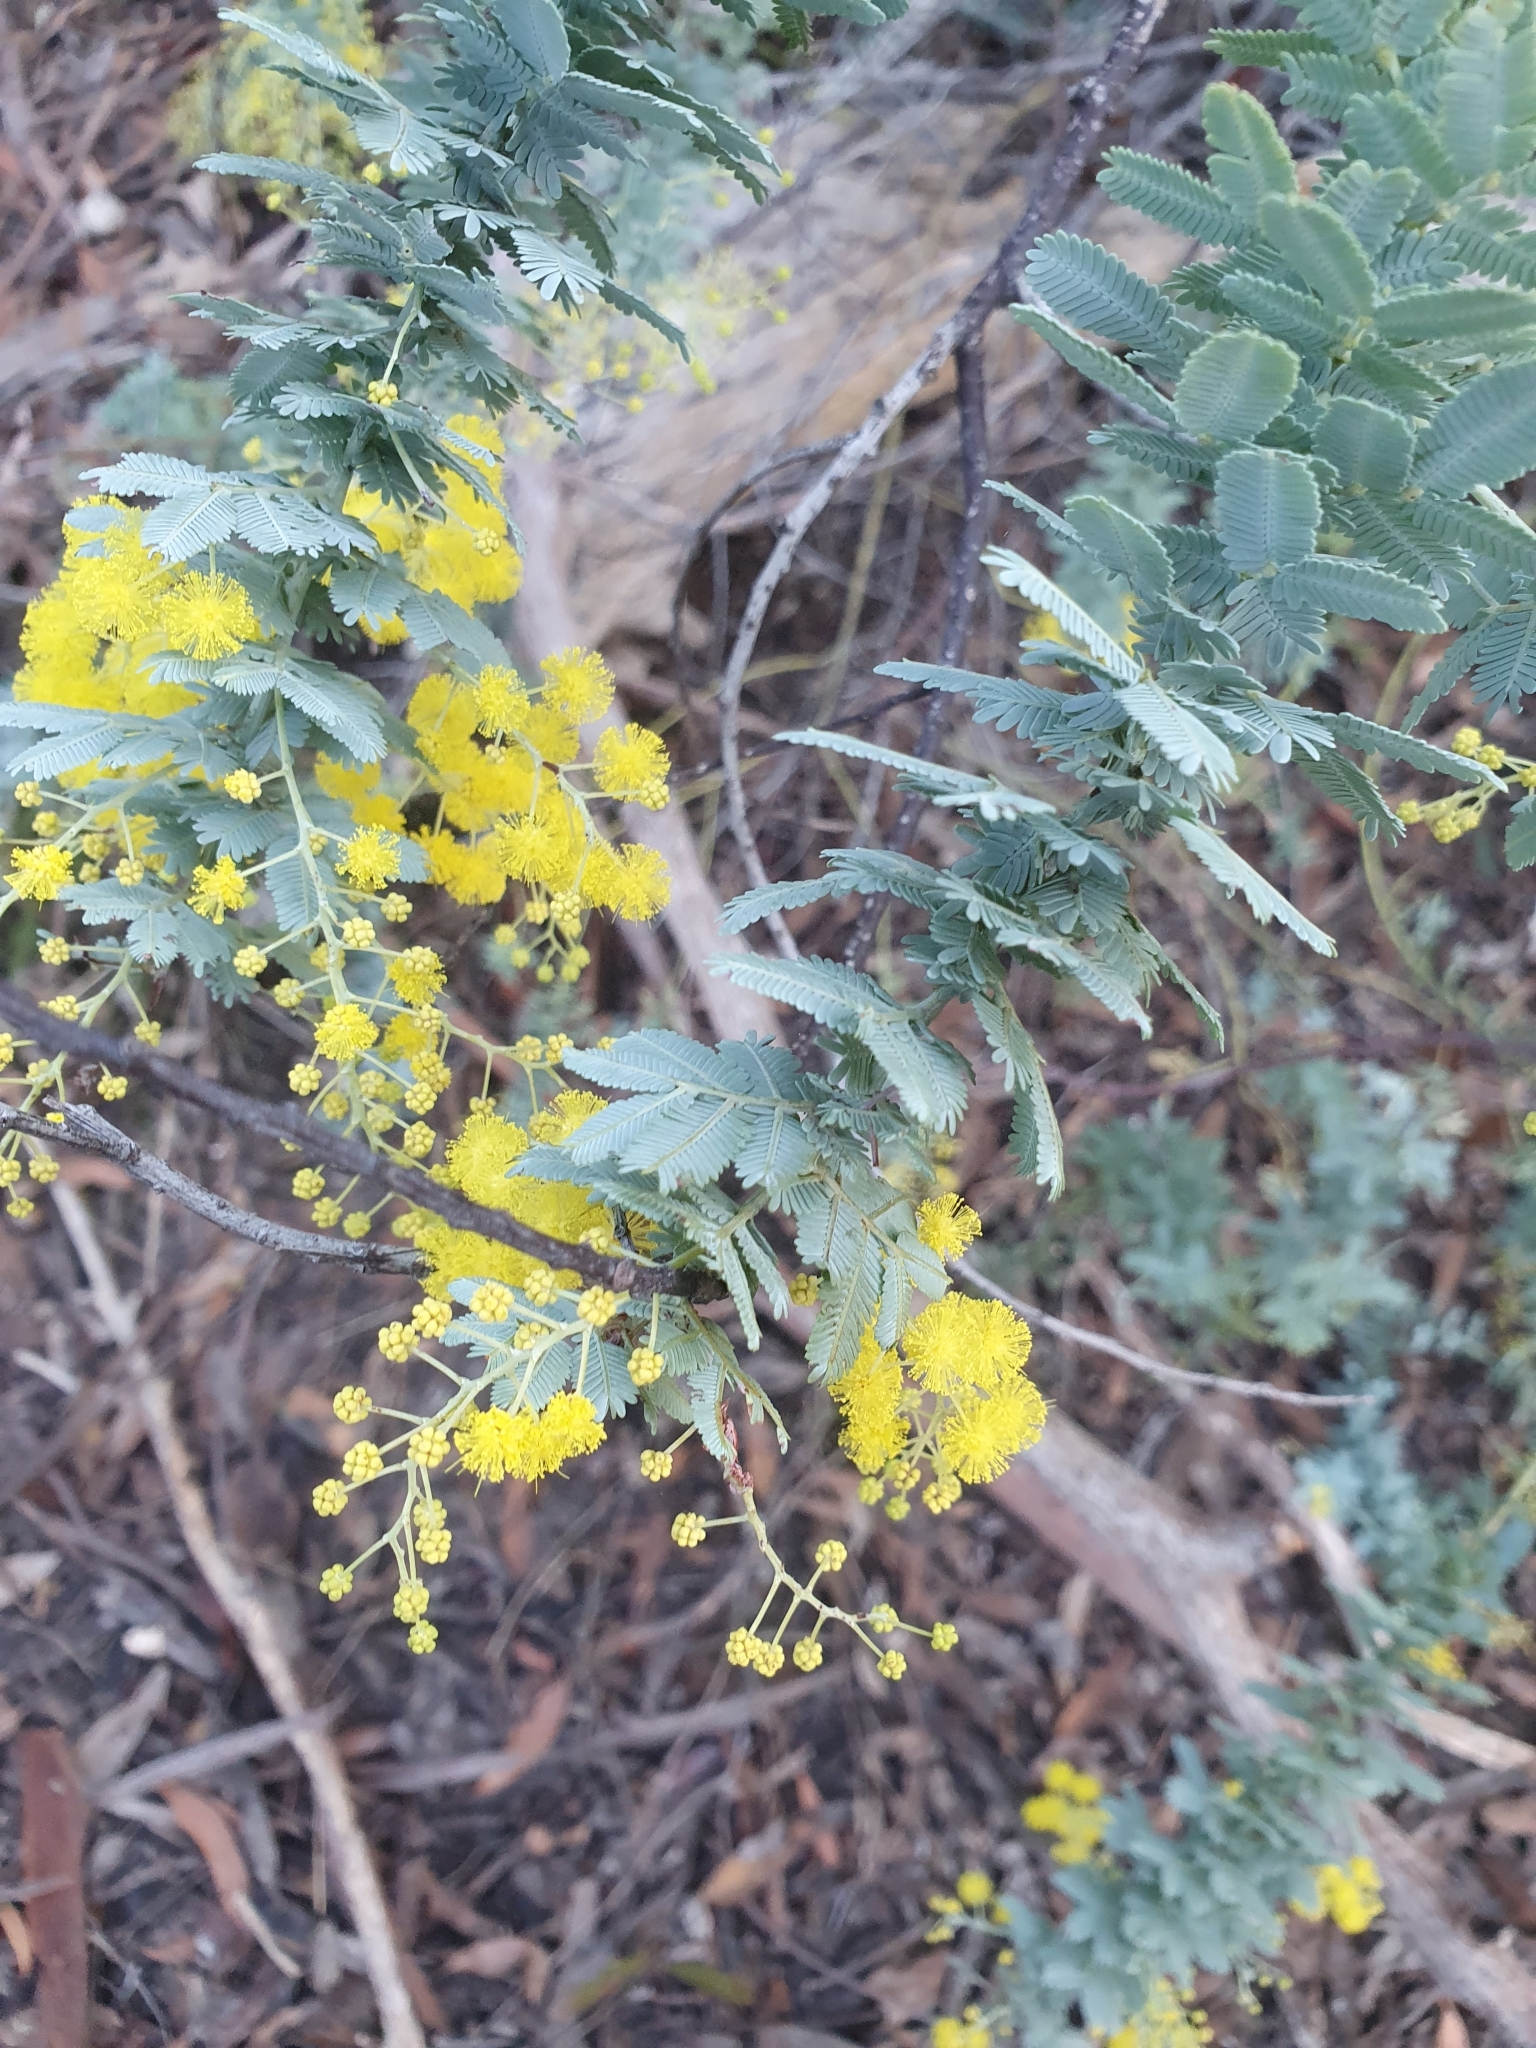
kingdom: Plantae
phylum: Tracheophyta
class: Magnoliopsida
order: Fabales
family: Fabaceae
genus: Acacia
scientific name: Acacia baileyana
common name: Cootamundra wattle
